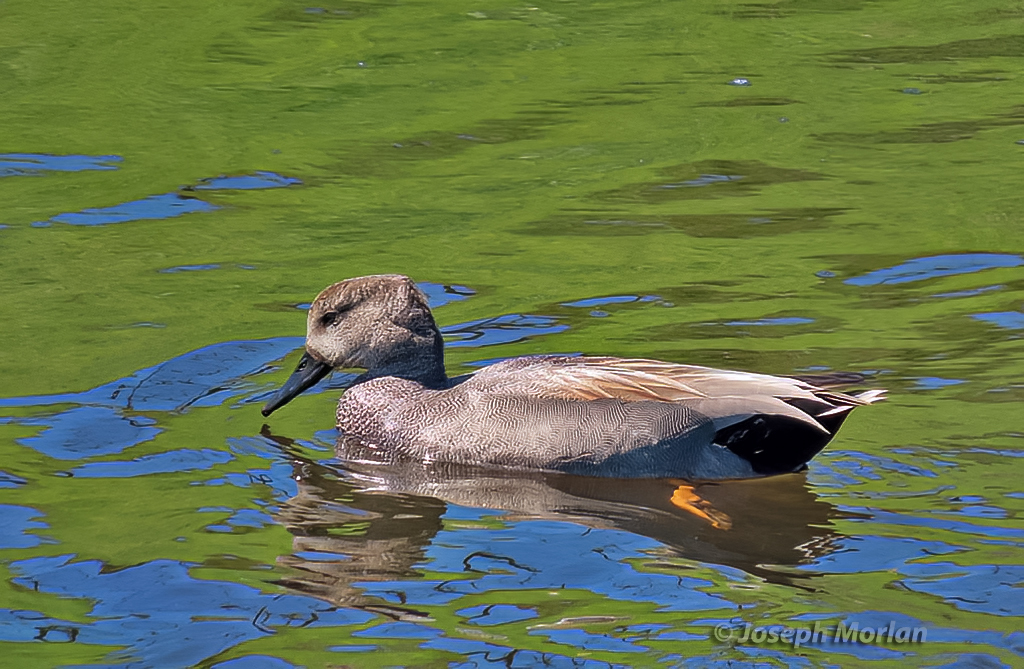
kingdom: Animalia
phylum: Chordata
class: Aves
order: Anseriformes
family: Anatidae
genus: Mareca
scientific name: Mareca strepera
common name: Gadwall
